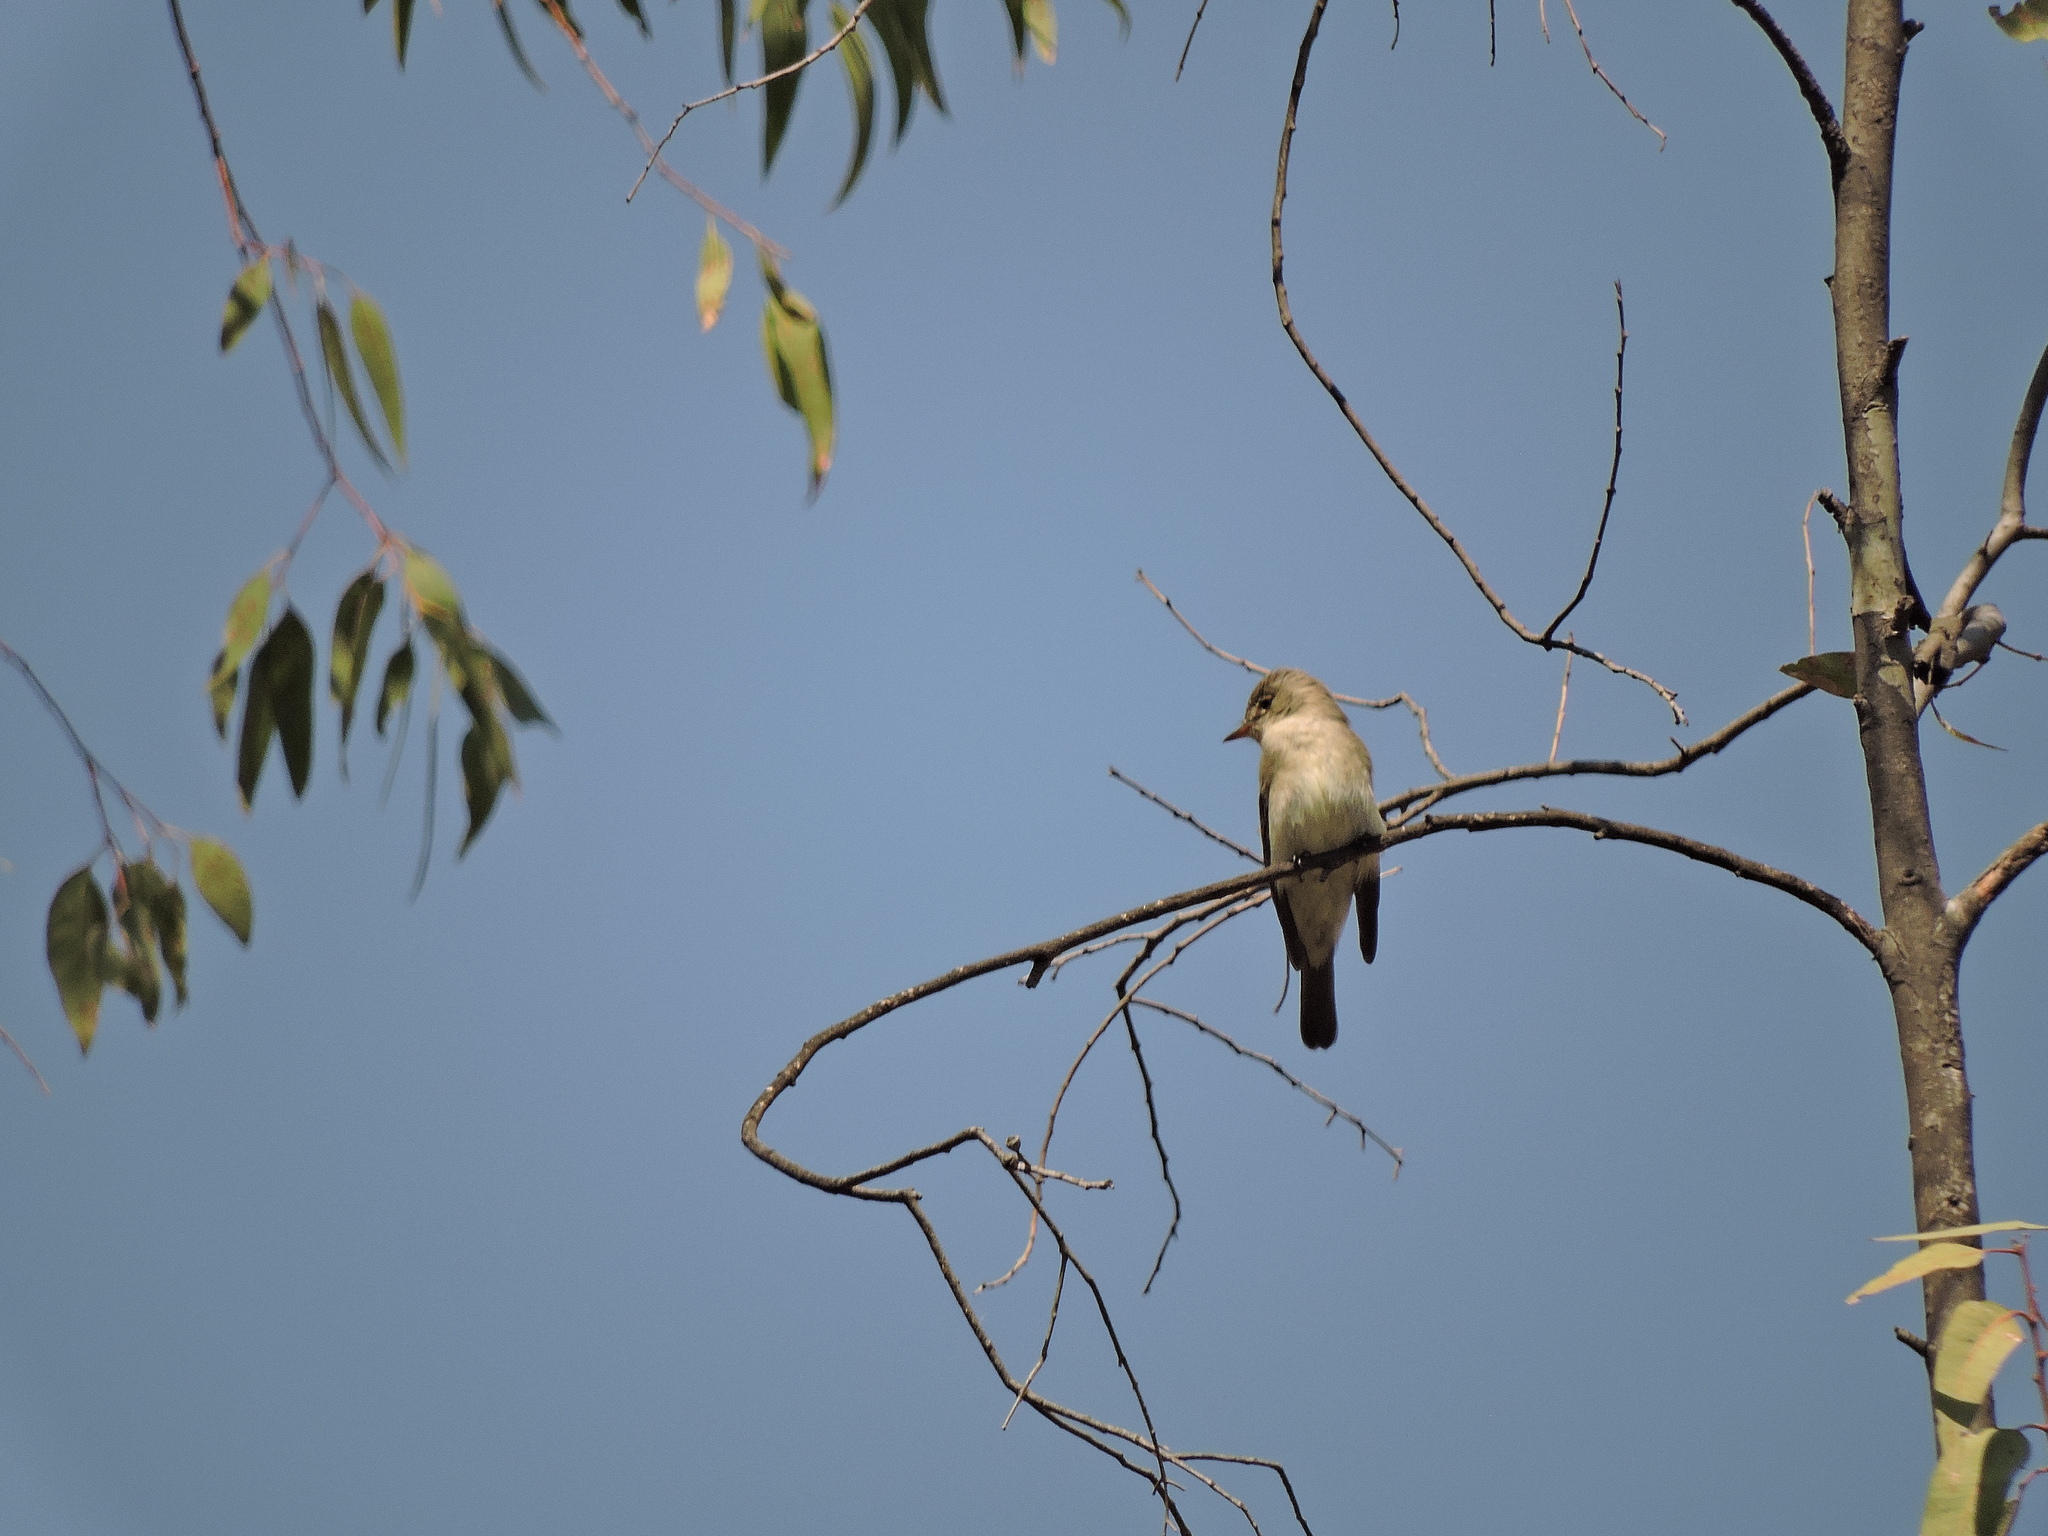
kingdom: Animalia
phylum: Chordata
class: Aves
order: Passeriformes
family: Tyrannidae
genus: Contopus
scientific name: Contopus sordidulus
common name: Western wood-pewee
